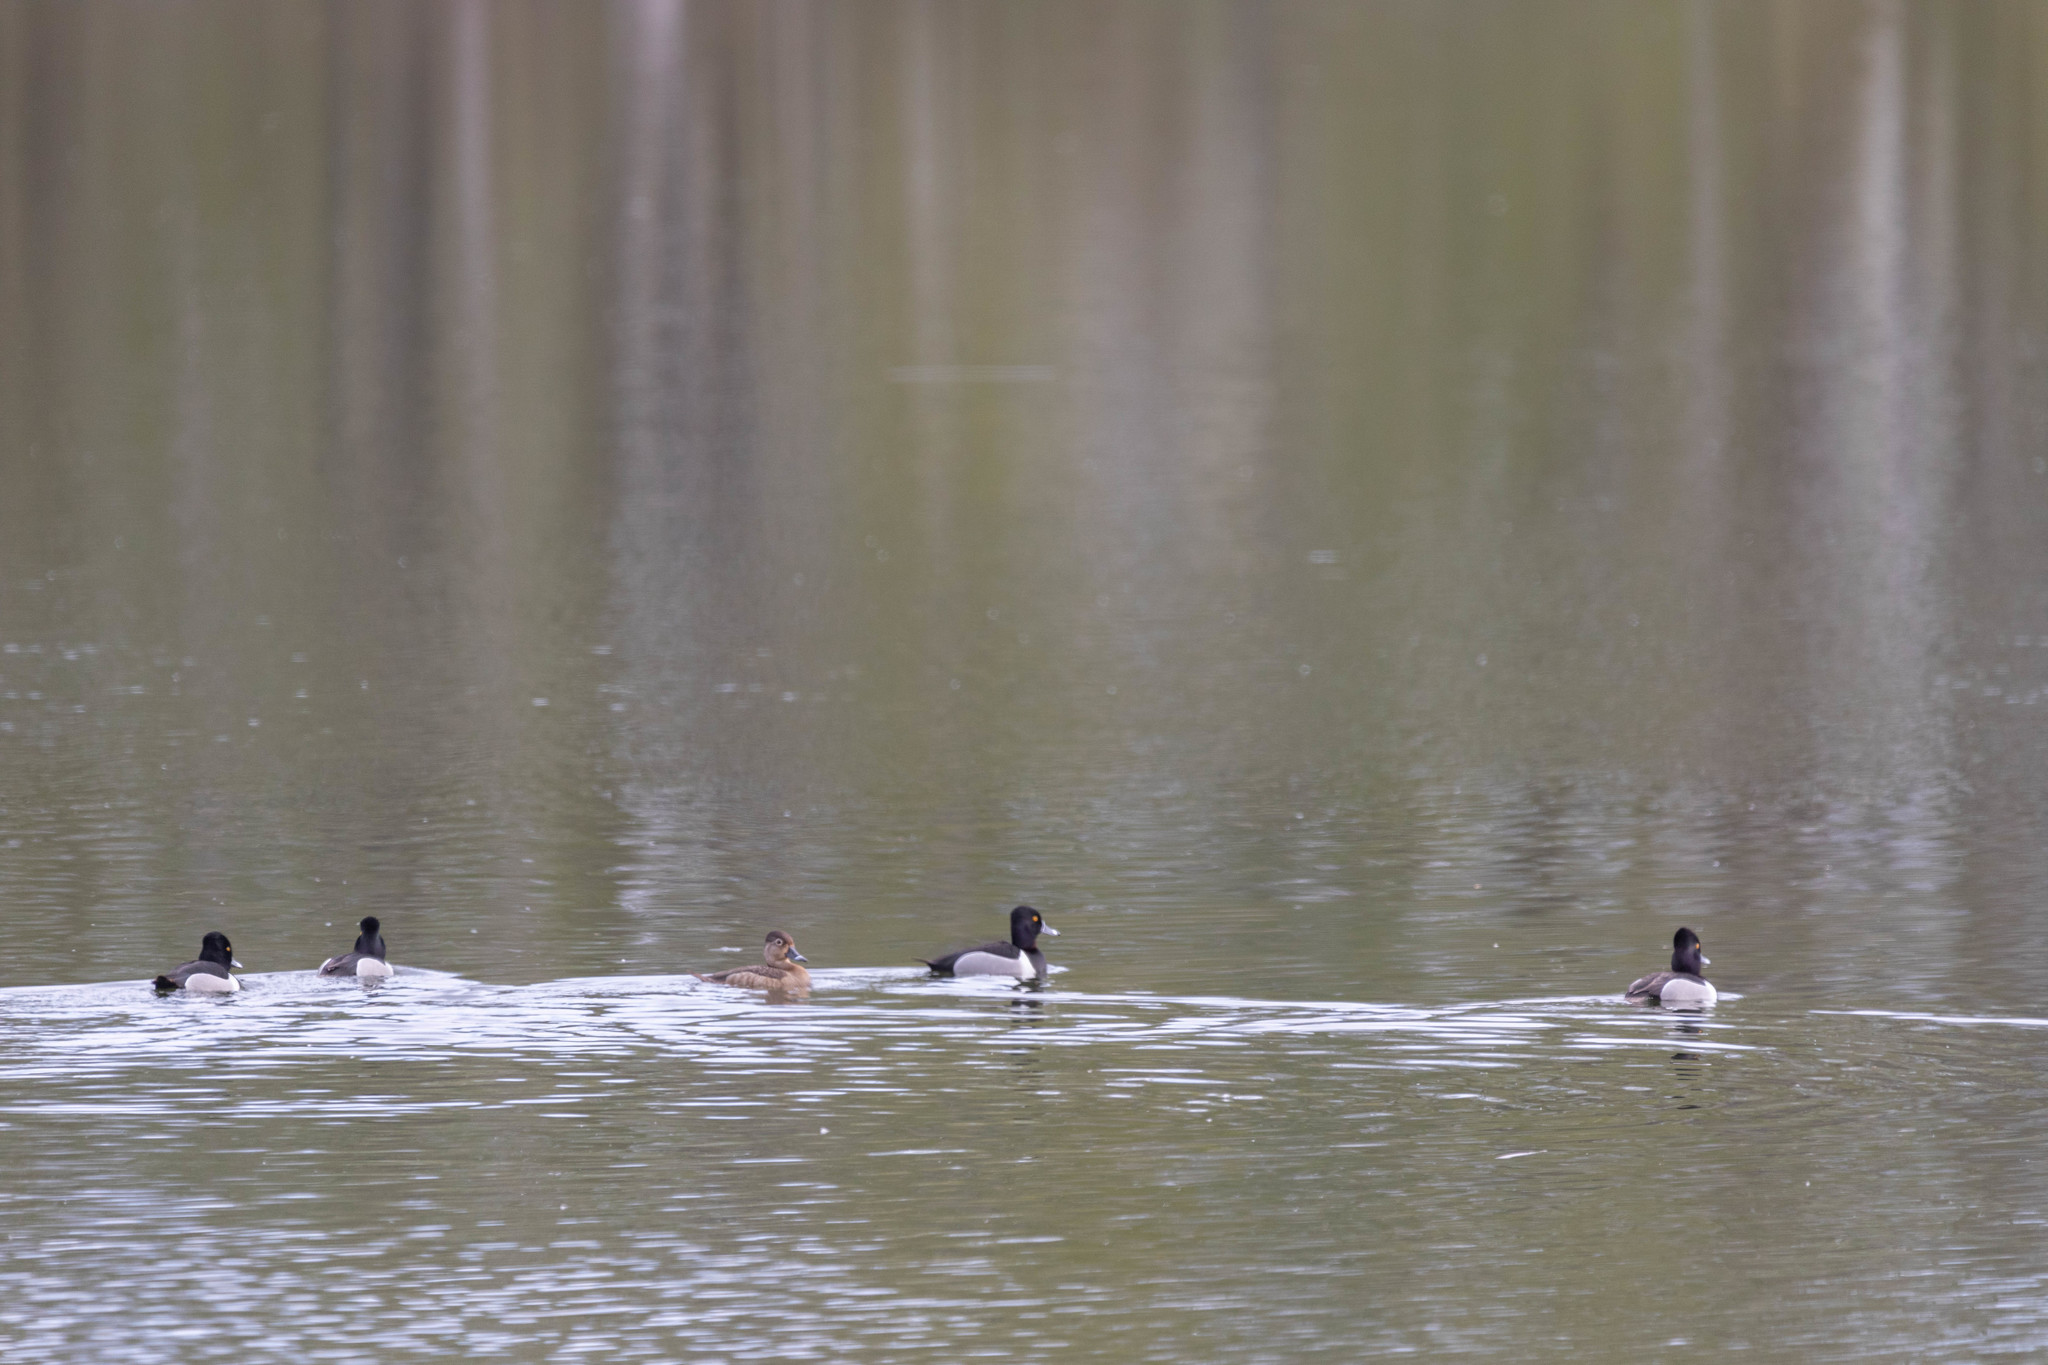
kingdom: Animalia
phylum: Chordata
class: Aves
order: Anseriformes
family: Anatidae
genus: Aythya
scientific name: Aythya collaris
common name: Ring-necked duck
